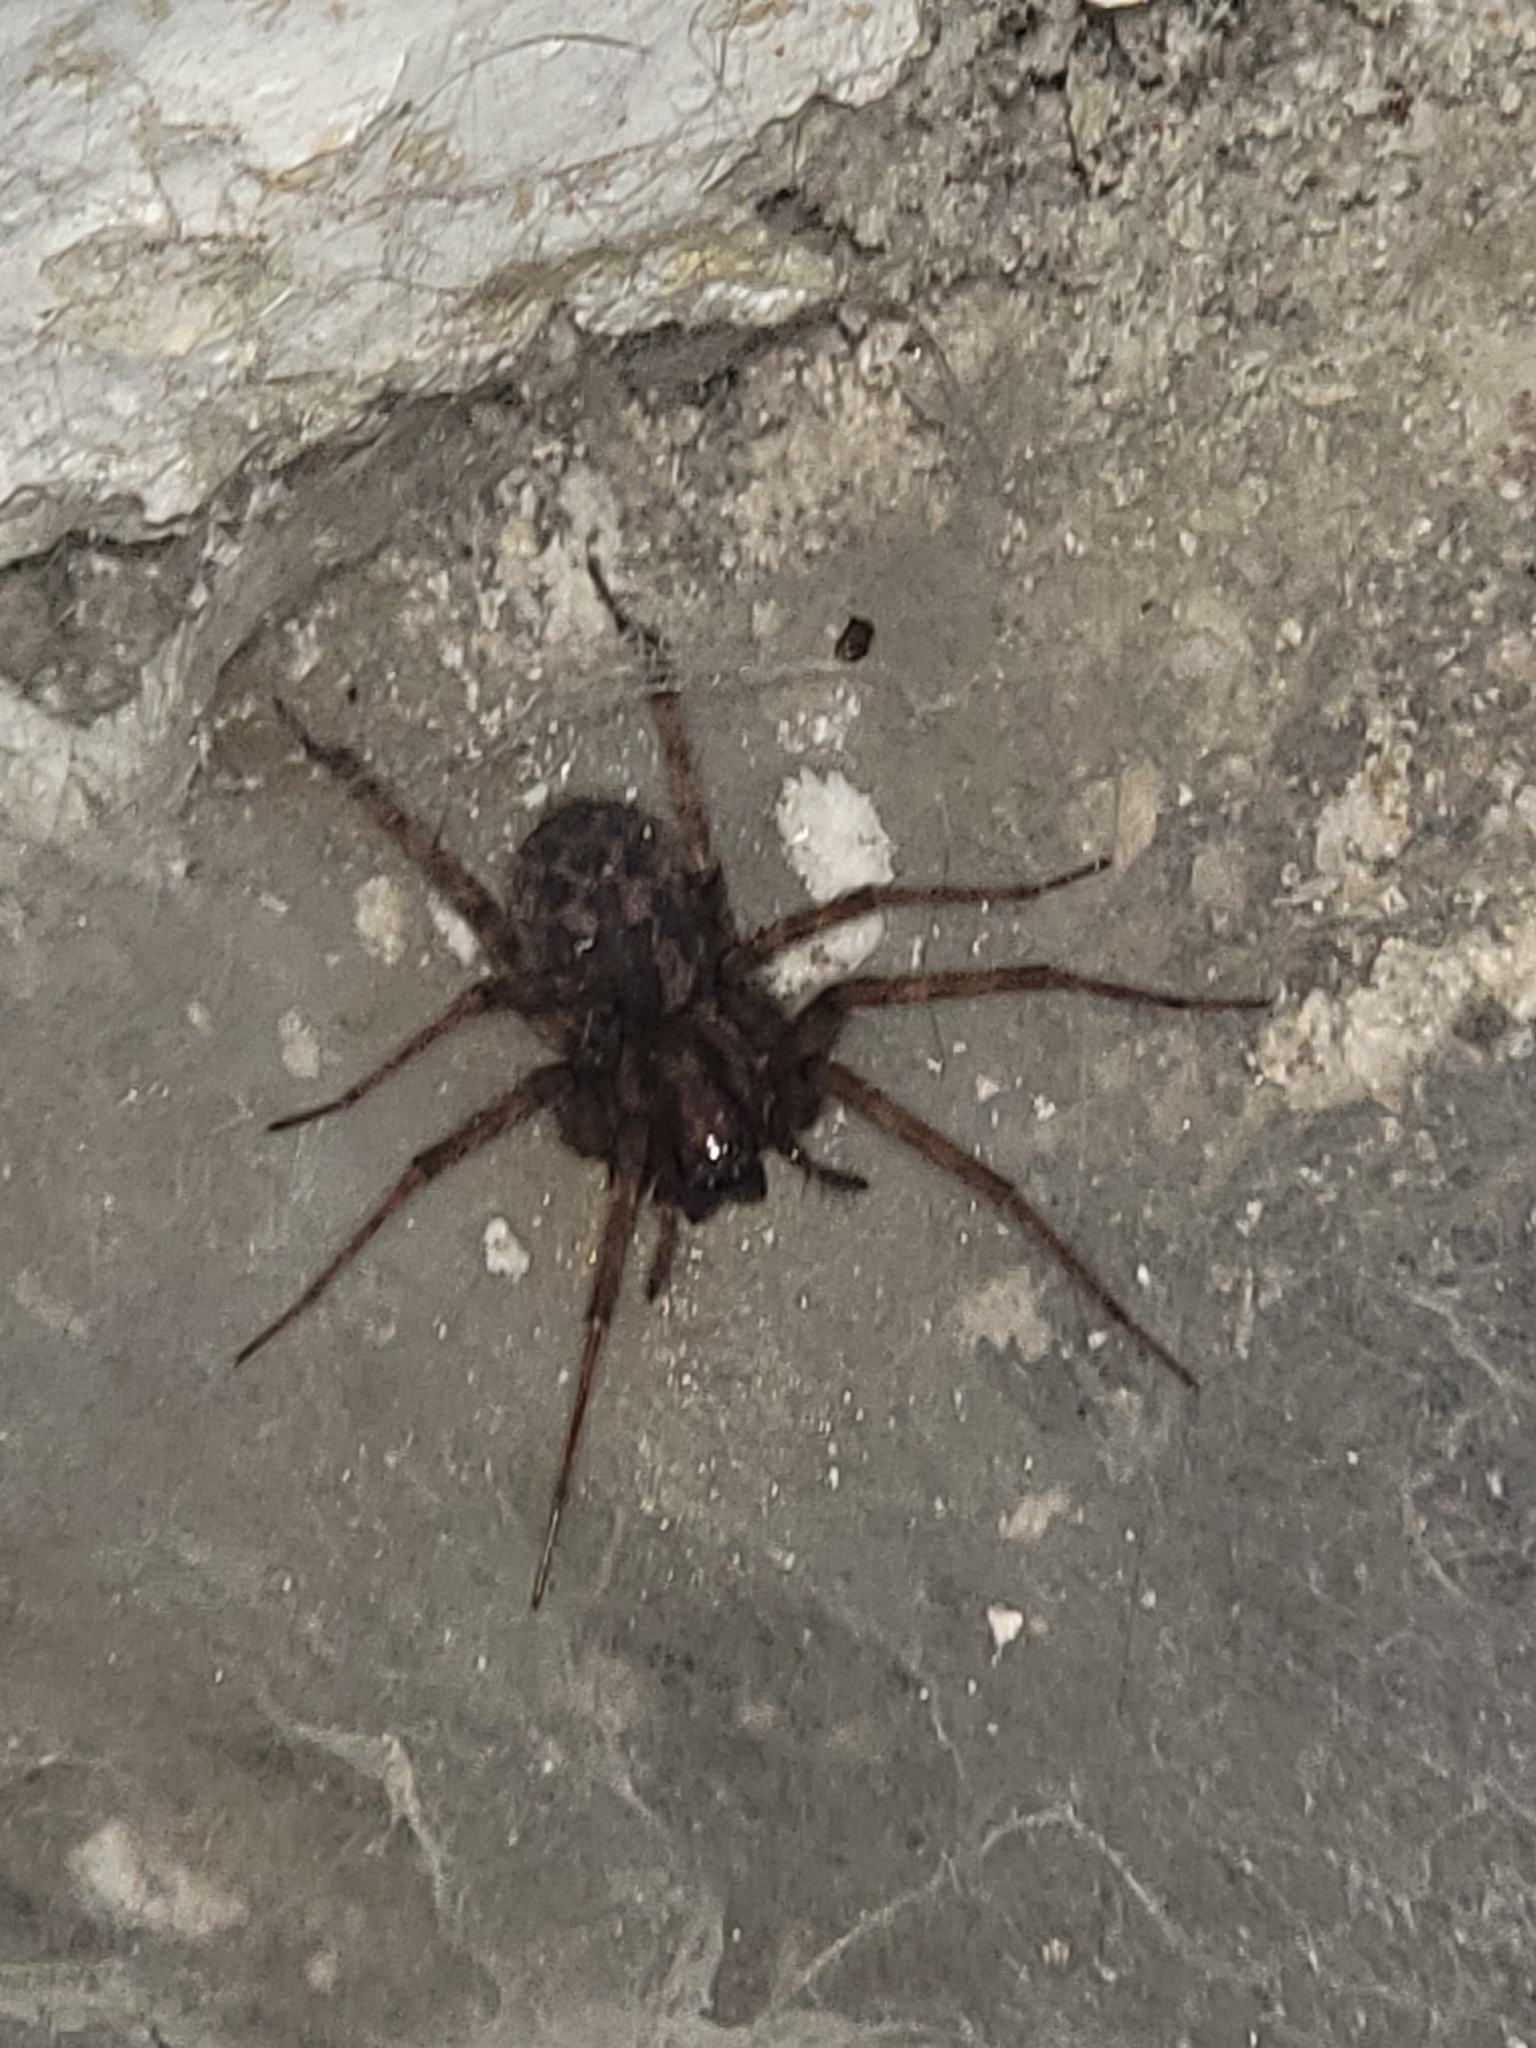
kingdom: Animalia
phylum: Arthropoda
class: Arachnida
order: Araneae
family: Agelenidae
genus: Tegenaria
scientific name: Tegenaria domestica
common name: Barn funnel weaver
